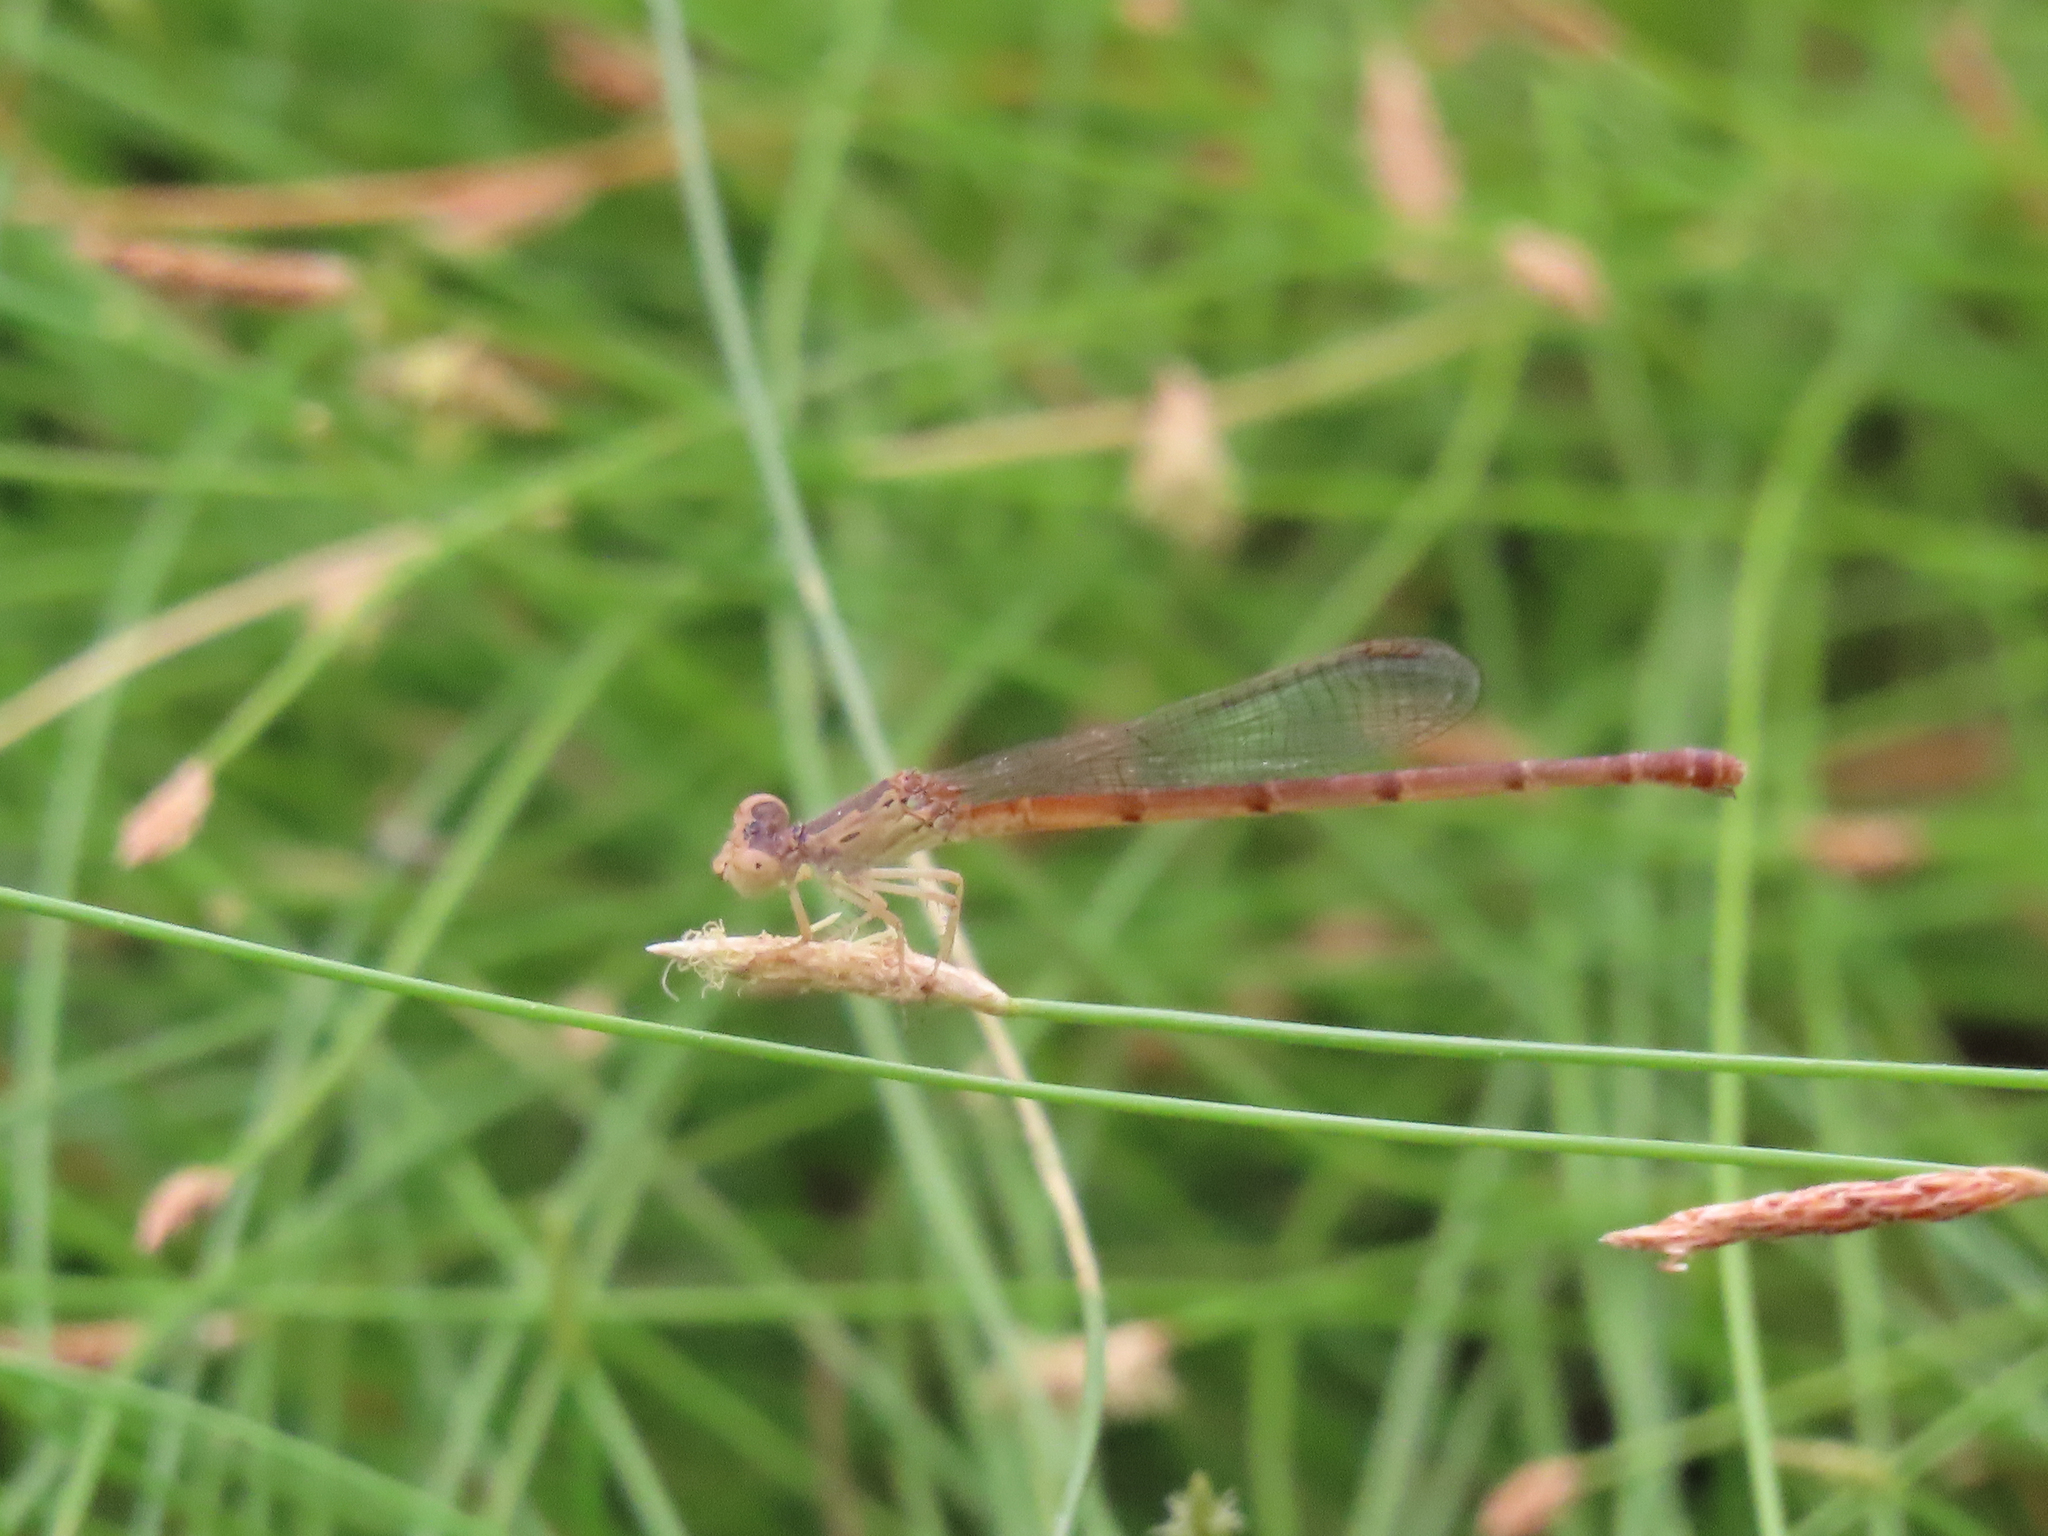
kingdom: Animalia
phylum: Arthropoda
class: Insecta
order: Odonata
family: Coenagrionidae
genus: Telebasis
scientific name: Telebasis salva
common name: Desert firetail
